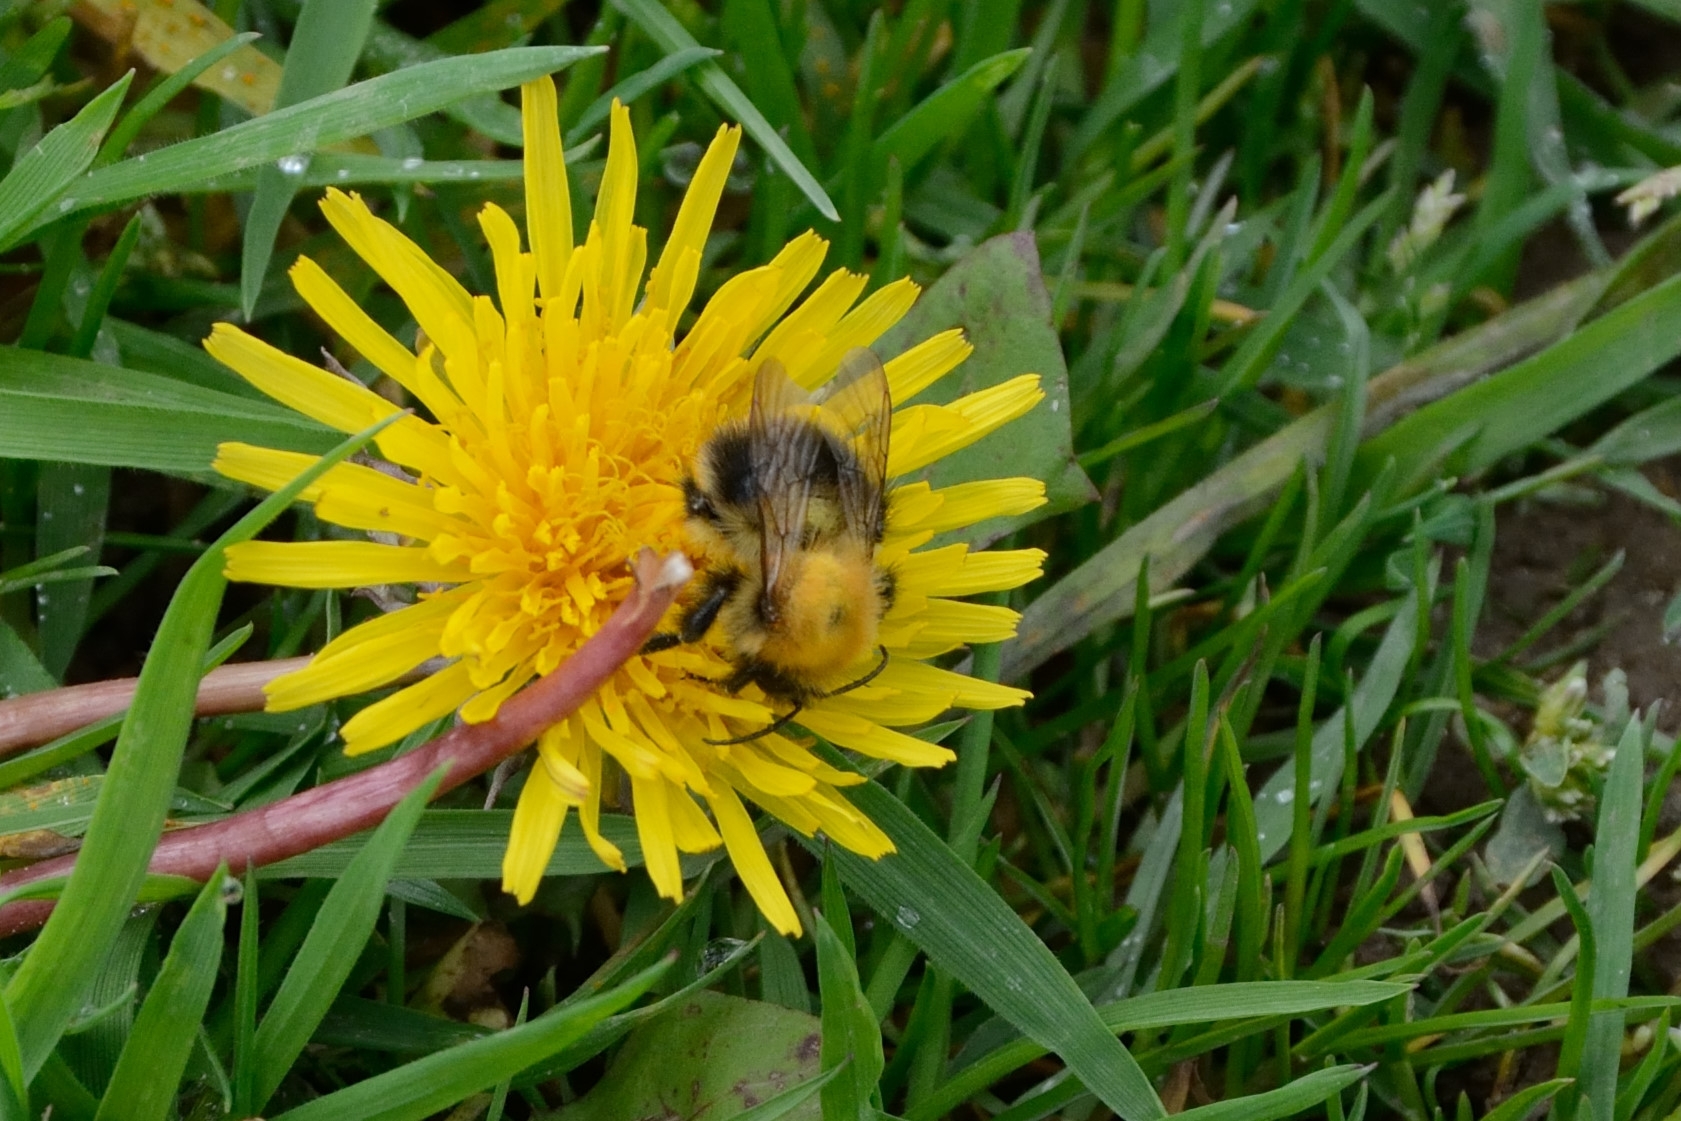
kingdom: Animalia
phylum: Arthropoda
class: Insecta
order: Hymenoptera
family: Apidae
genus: Bombus
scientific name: Bombus pascuorum
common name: Common carder bee
